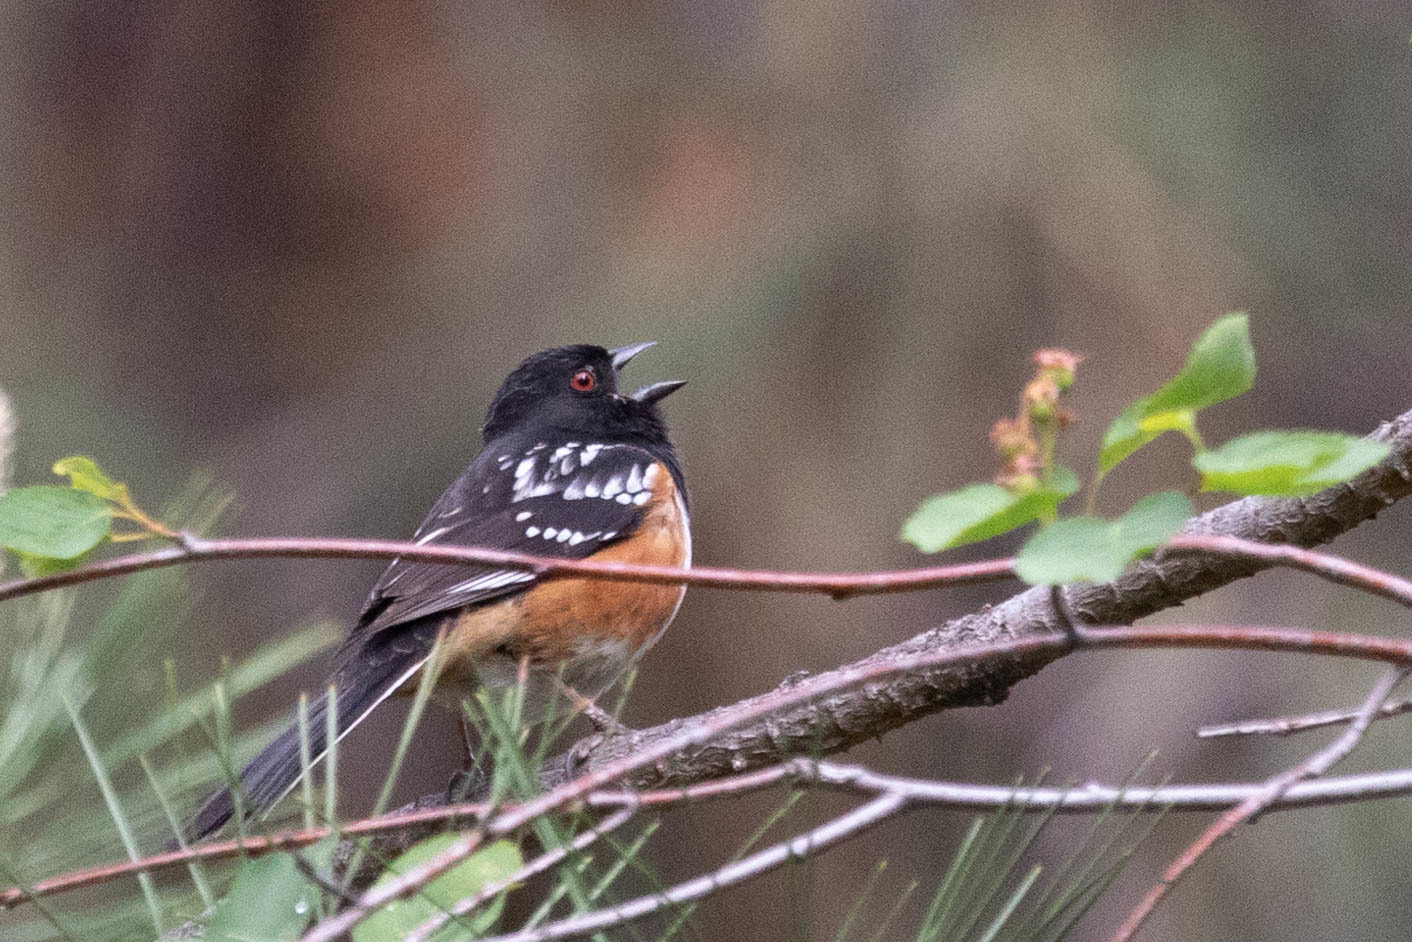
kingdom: Animalia
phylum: Chordata
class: Aves
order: Passeriformes
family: Passerellidae
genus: Pipilo
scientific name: Pipilo maculatus
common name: Spotted towhee
